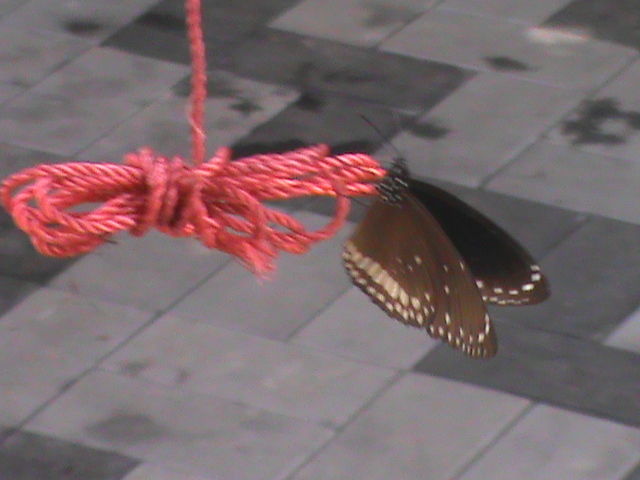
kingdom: Animalia
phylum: Arthropoda
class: Insecta
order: Lepidoptera
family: Nymphalidae
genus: Euploea
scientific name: Euploea core
